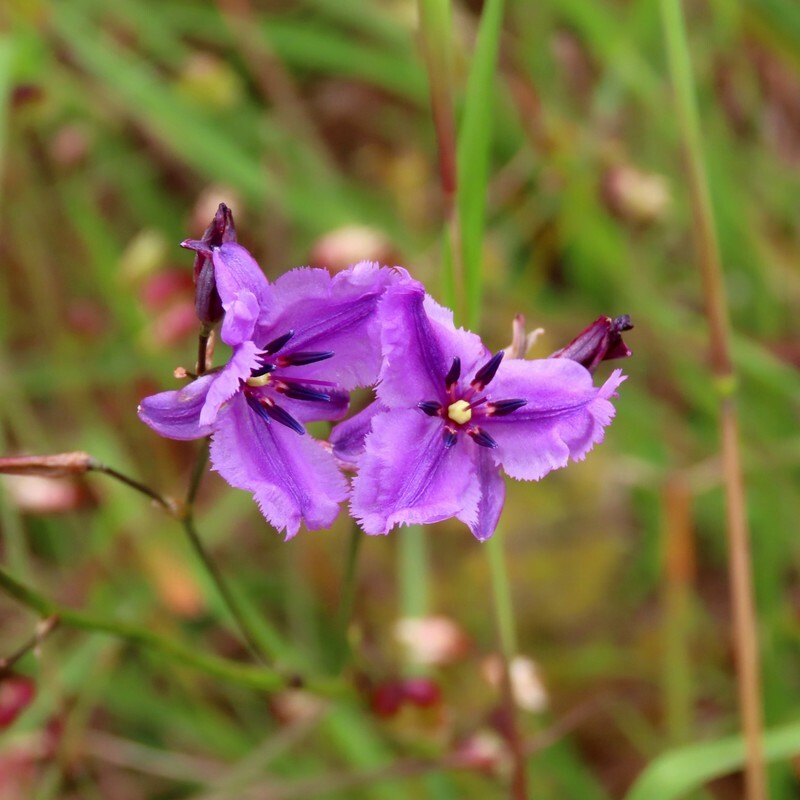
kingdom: Plantae
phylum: Tracheophyta
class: Liliopsida
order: Asparagales
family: Asparagaceae
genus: Arthropodium
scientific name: Arthropodium strictum
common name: Chocolate-lily
